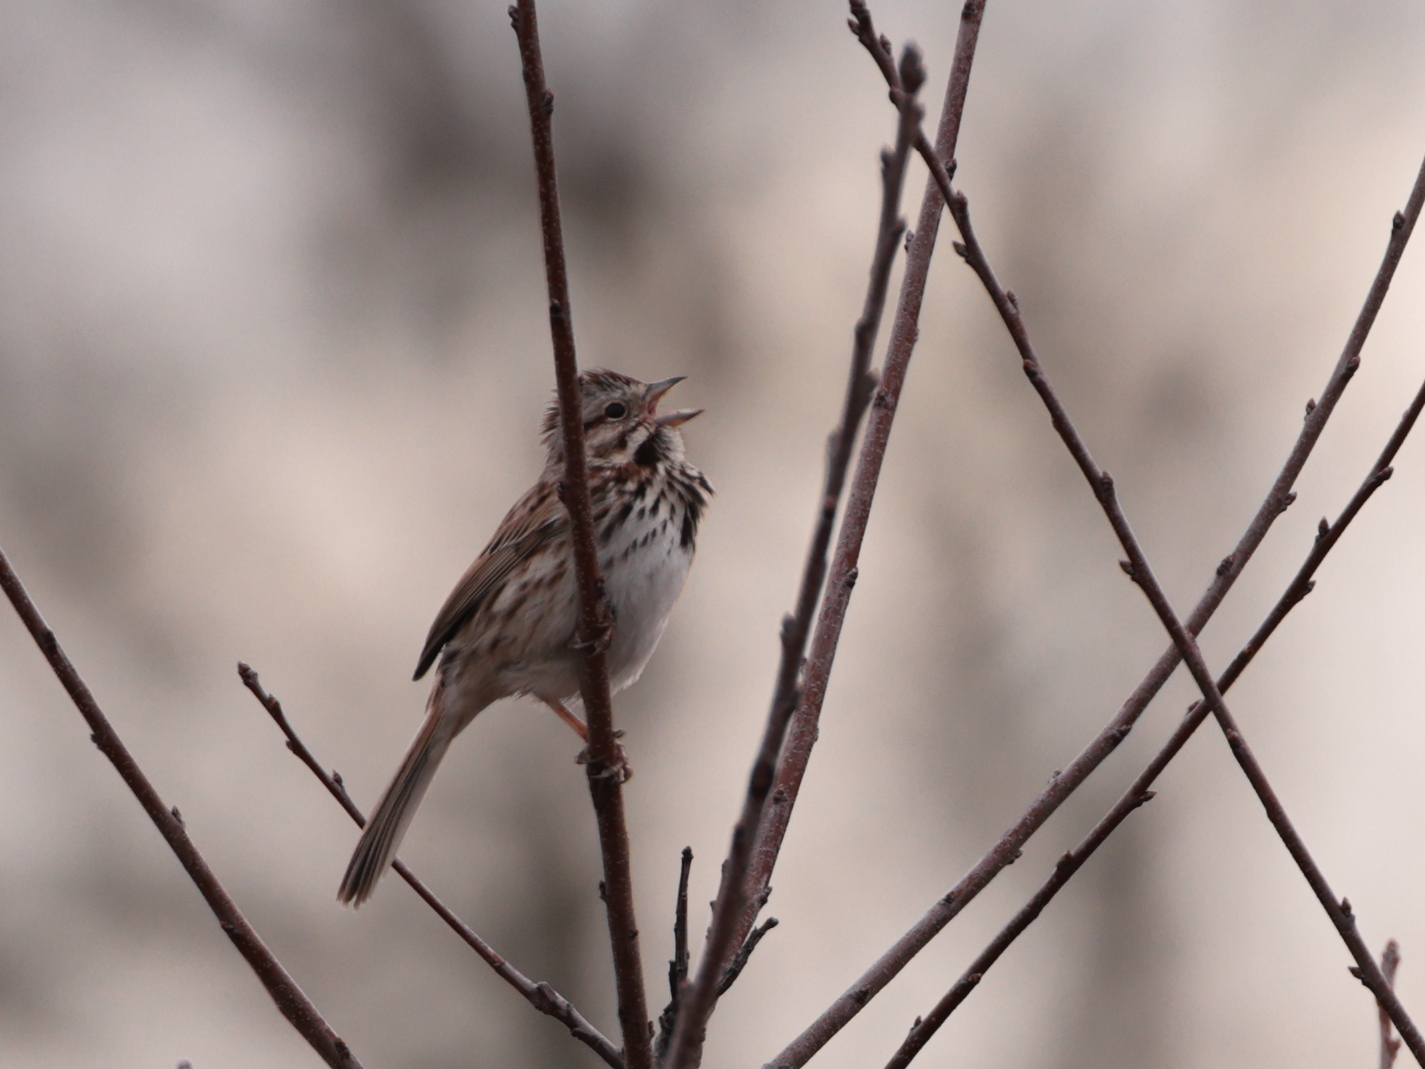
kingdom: Animalia
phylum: Chordata
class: Aves
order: Passeriformes
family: Passerellidae
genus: Melospiza
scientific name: Melospiza melodia
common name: Song sparrow
